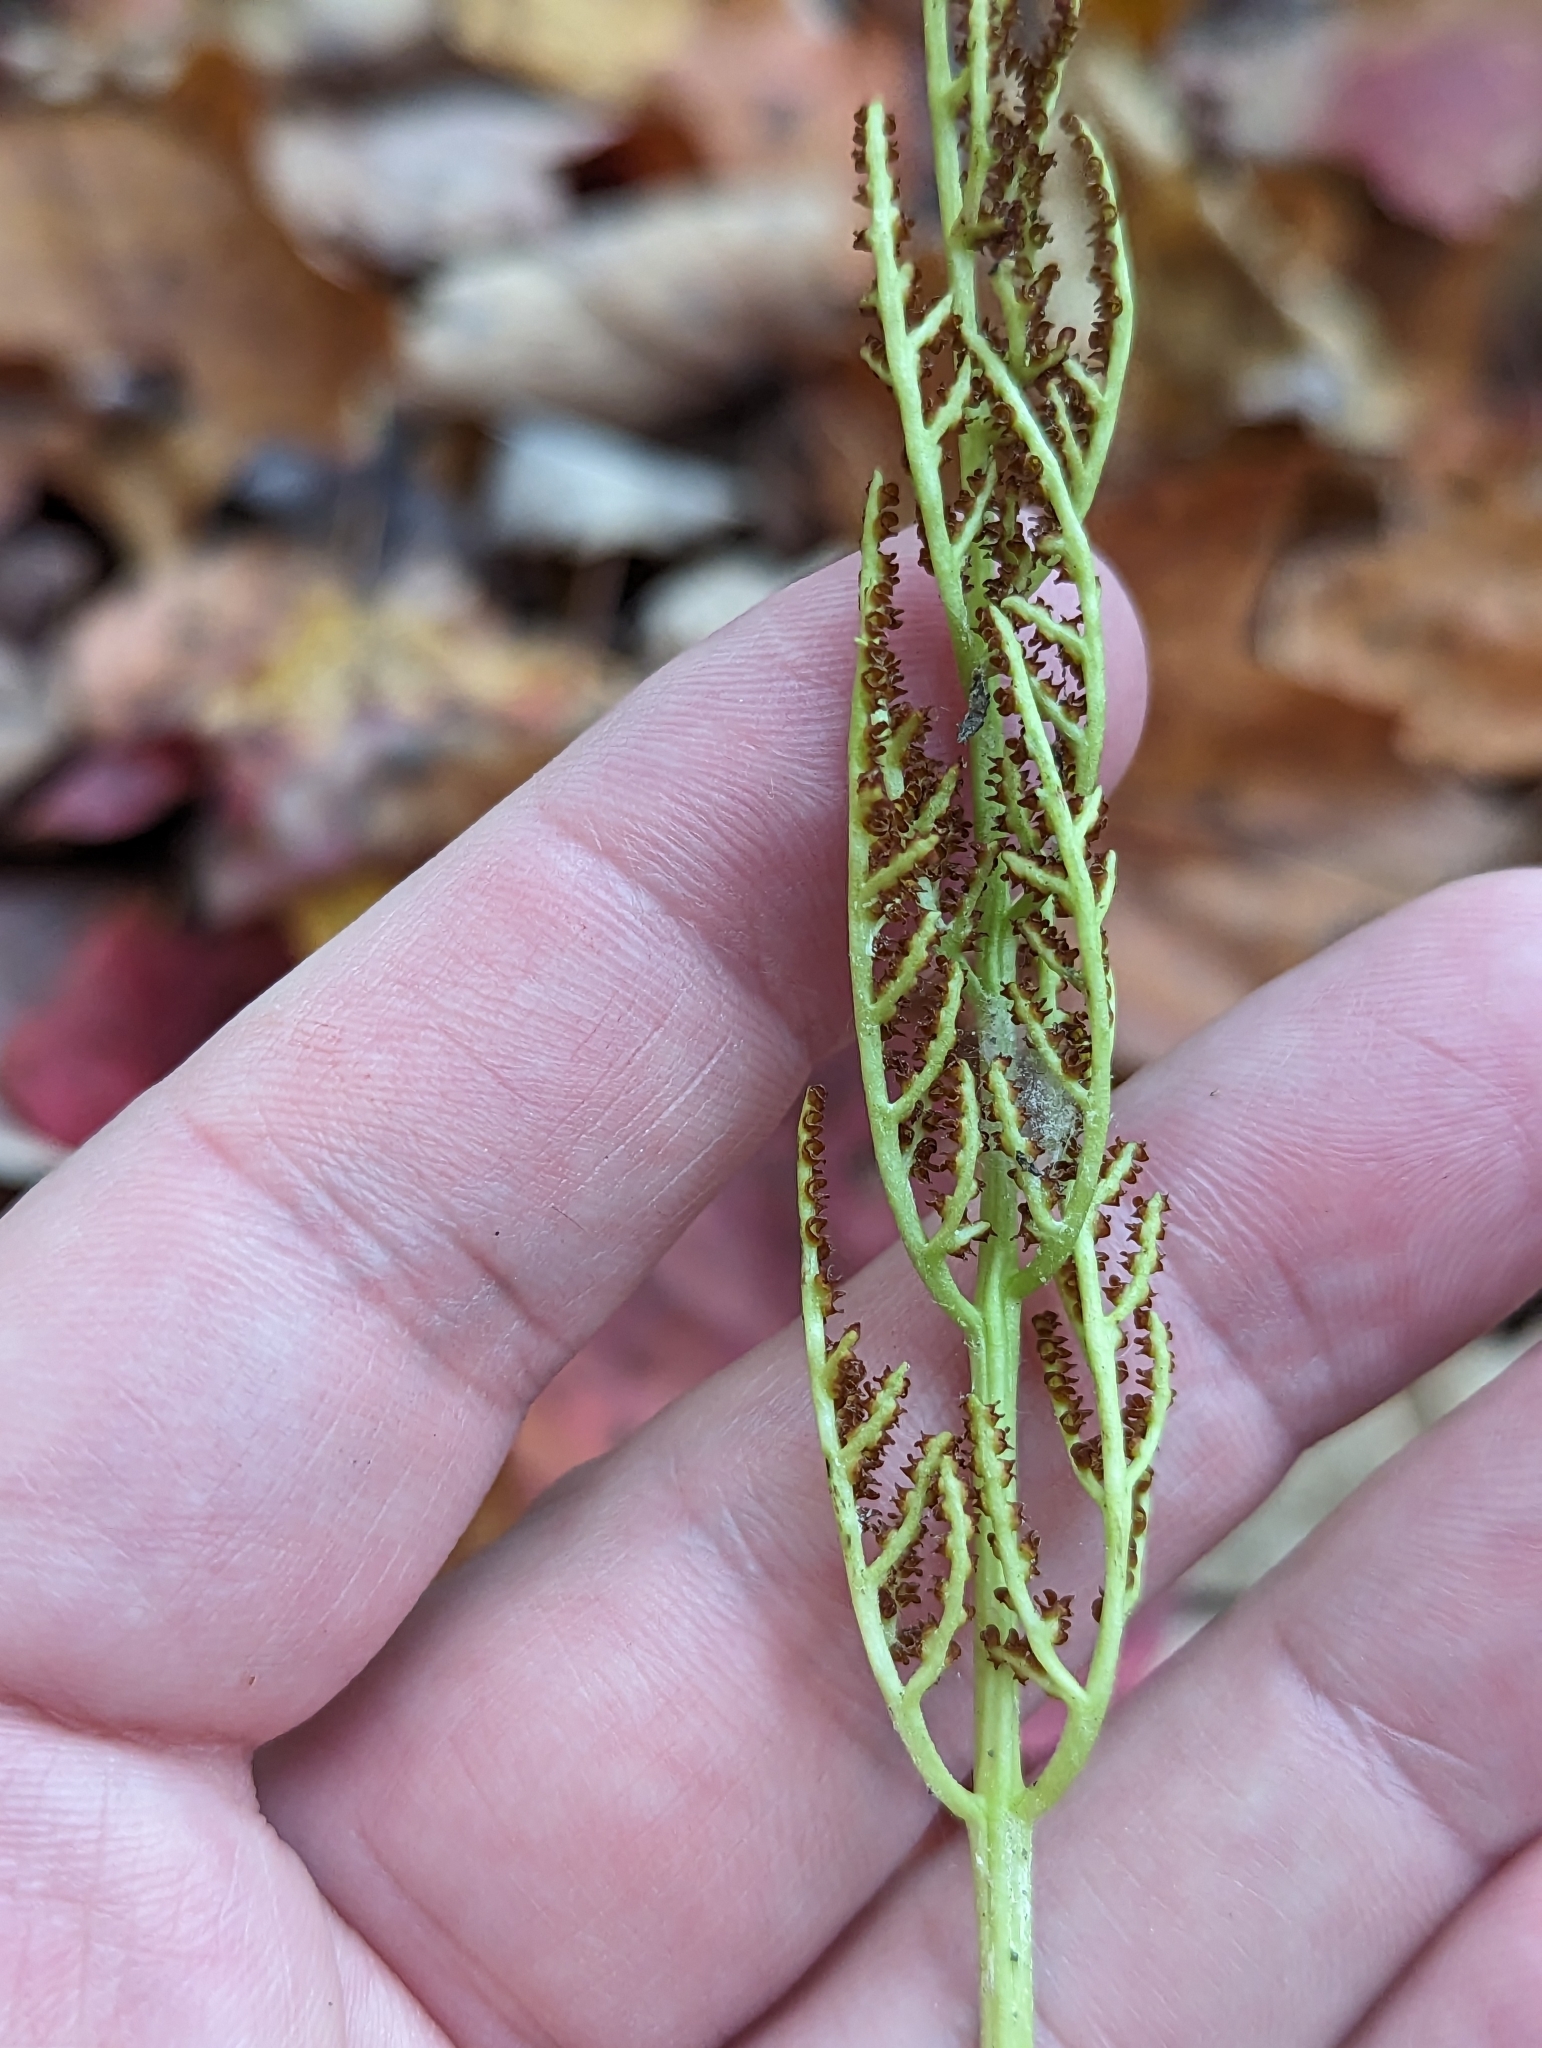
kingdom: Plantae
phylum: Tracheophyta
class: Polypodiopsida
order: Ophioglossales
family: Ophioglossaceae
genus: Sceptridium
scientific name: Sceptridium dissectum
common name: Cut-leaved grapefern
